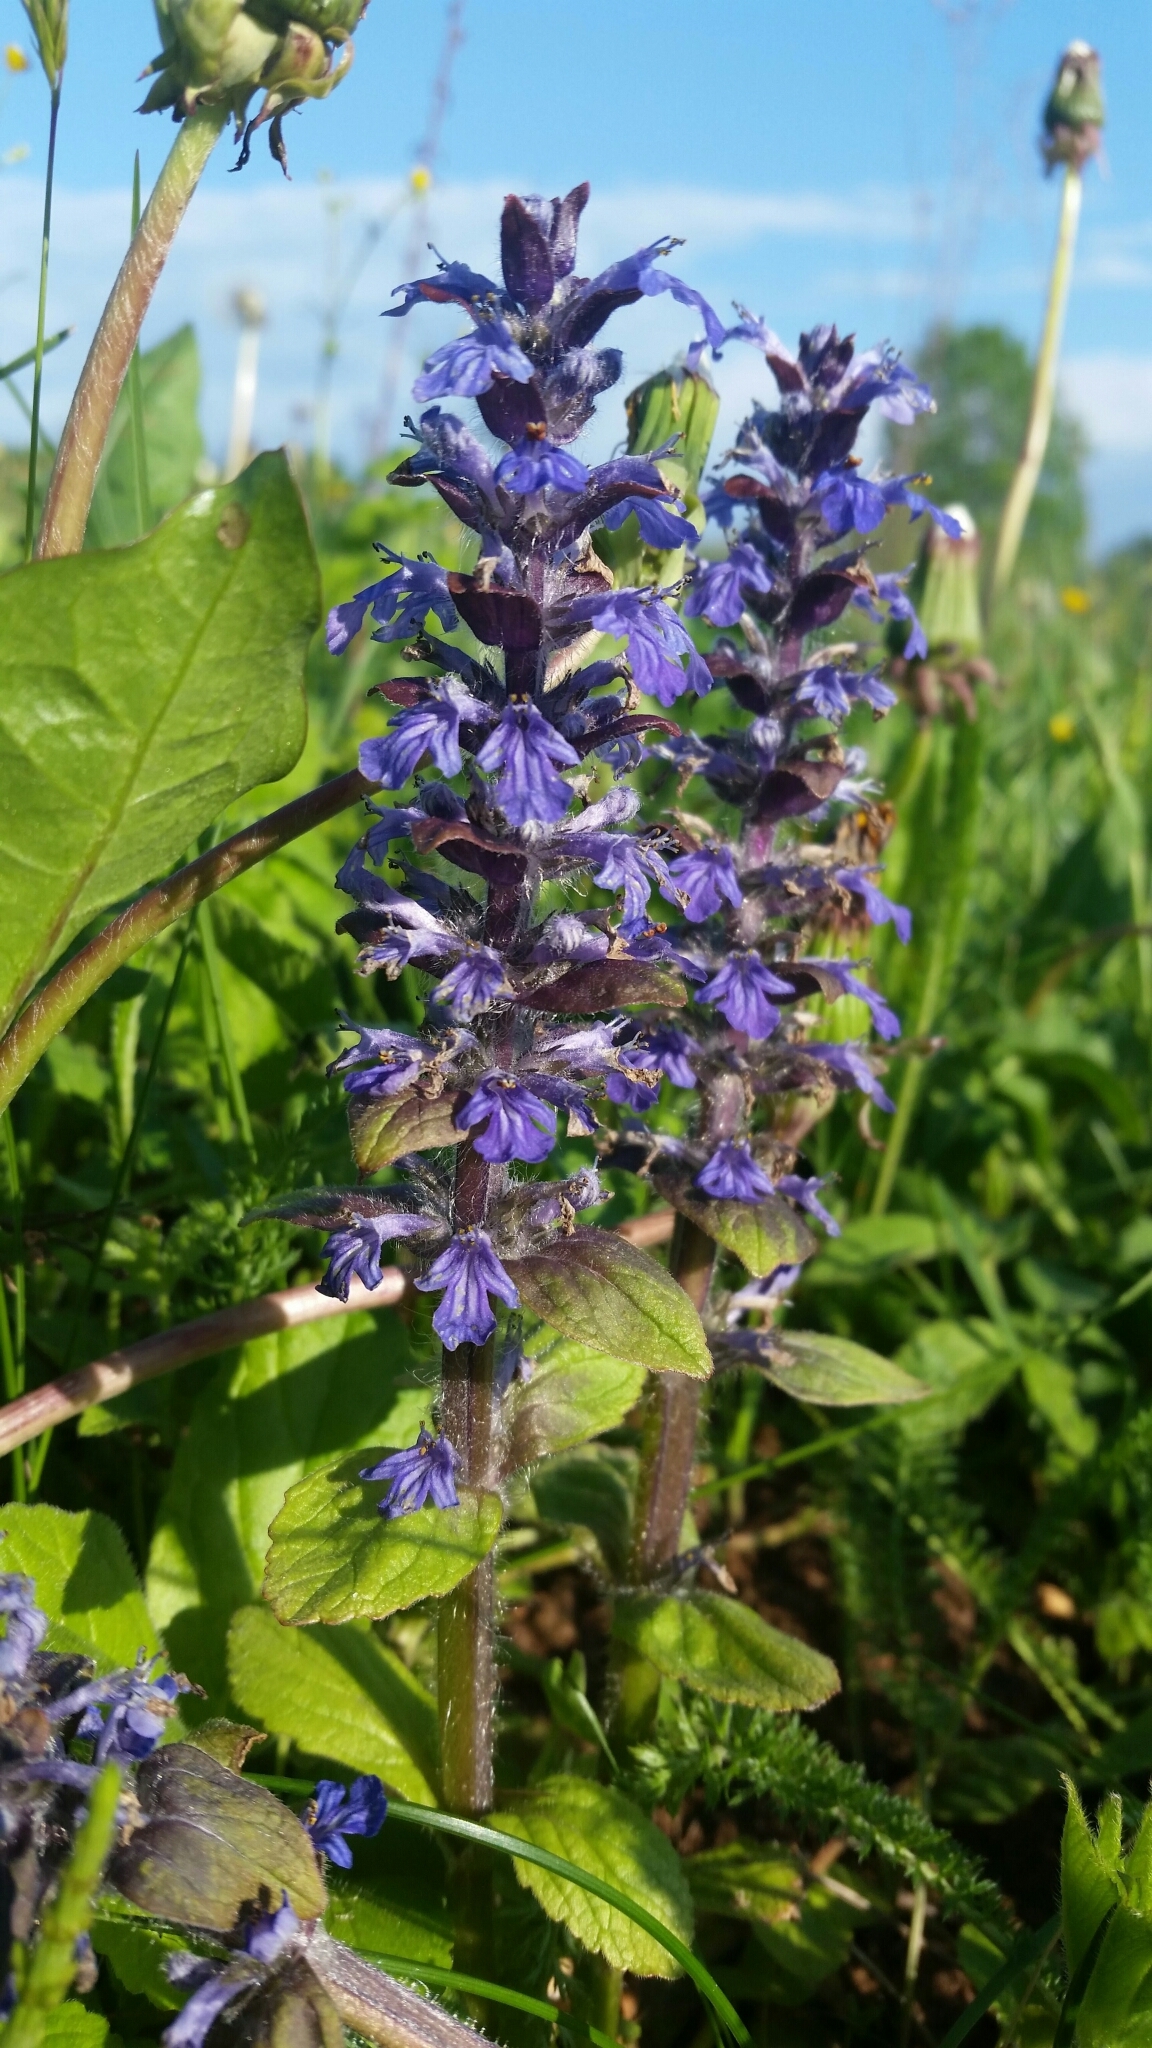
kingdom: Plantae
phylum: Tracheophyta
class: Magnoliopsida
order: Lamiales
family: Lamiaceae
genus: Ajuga
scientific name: Ajuga reptans
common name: Bugle
